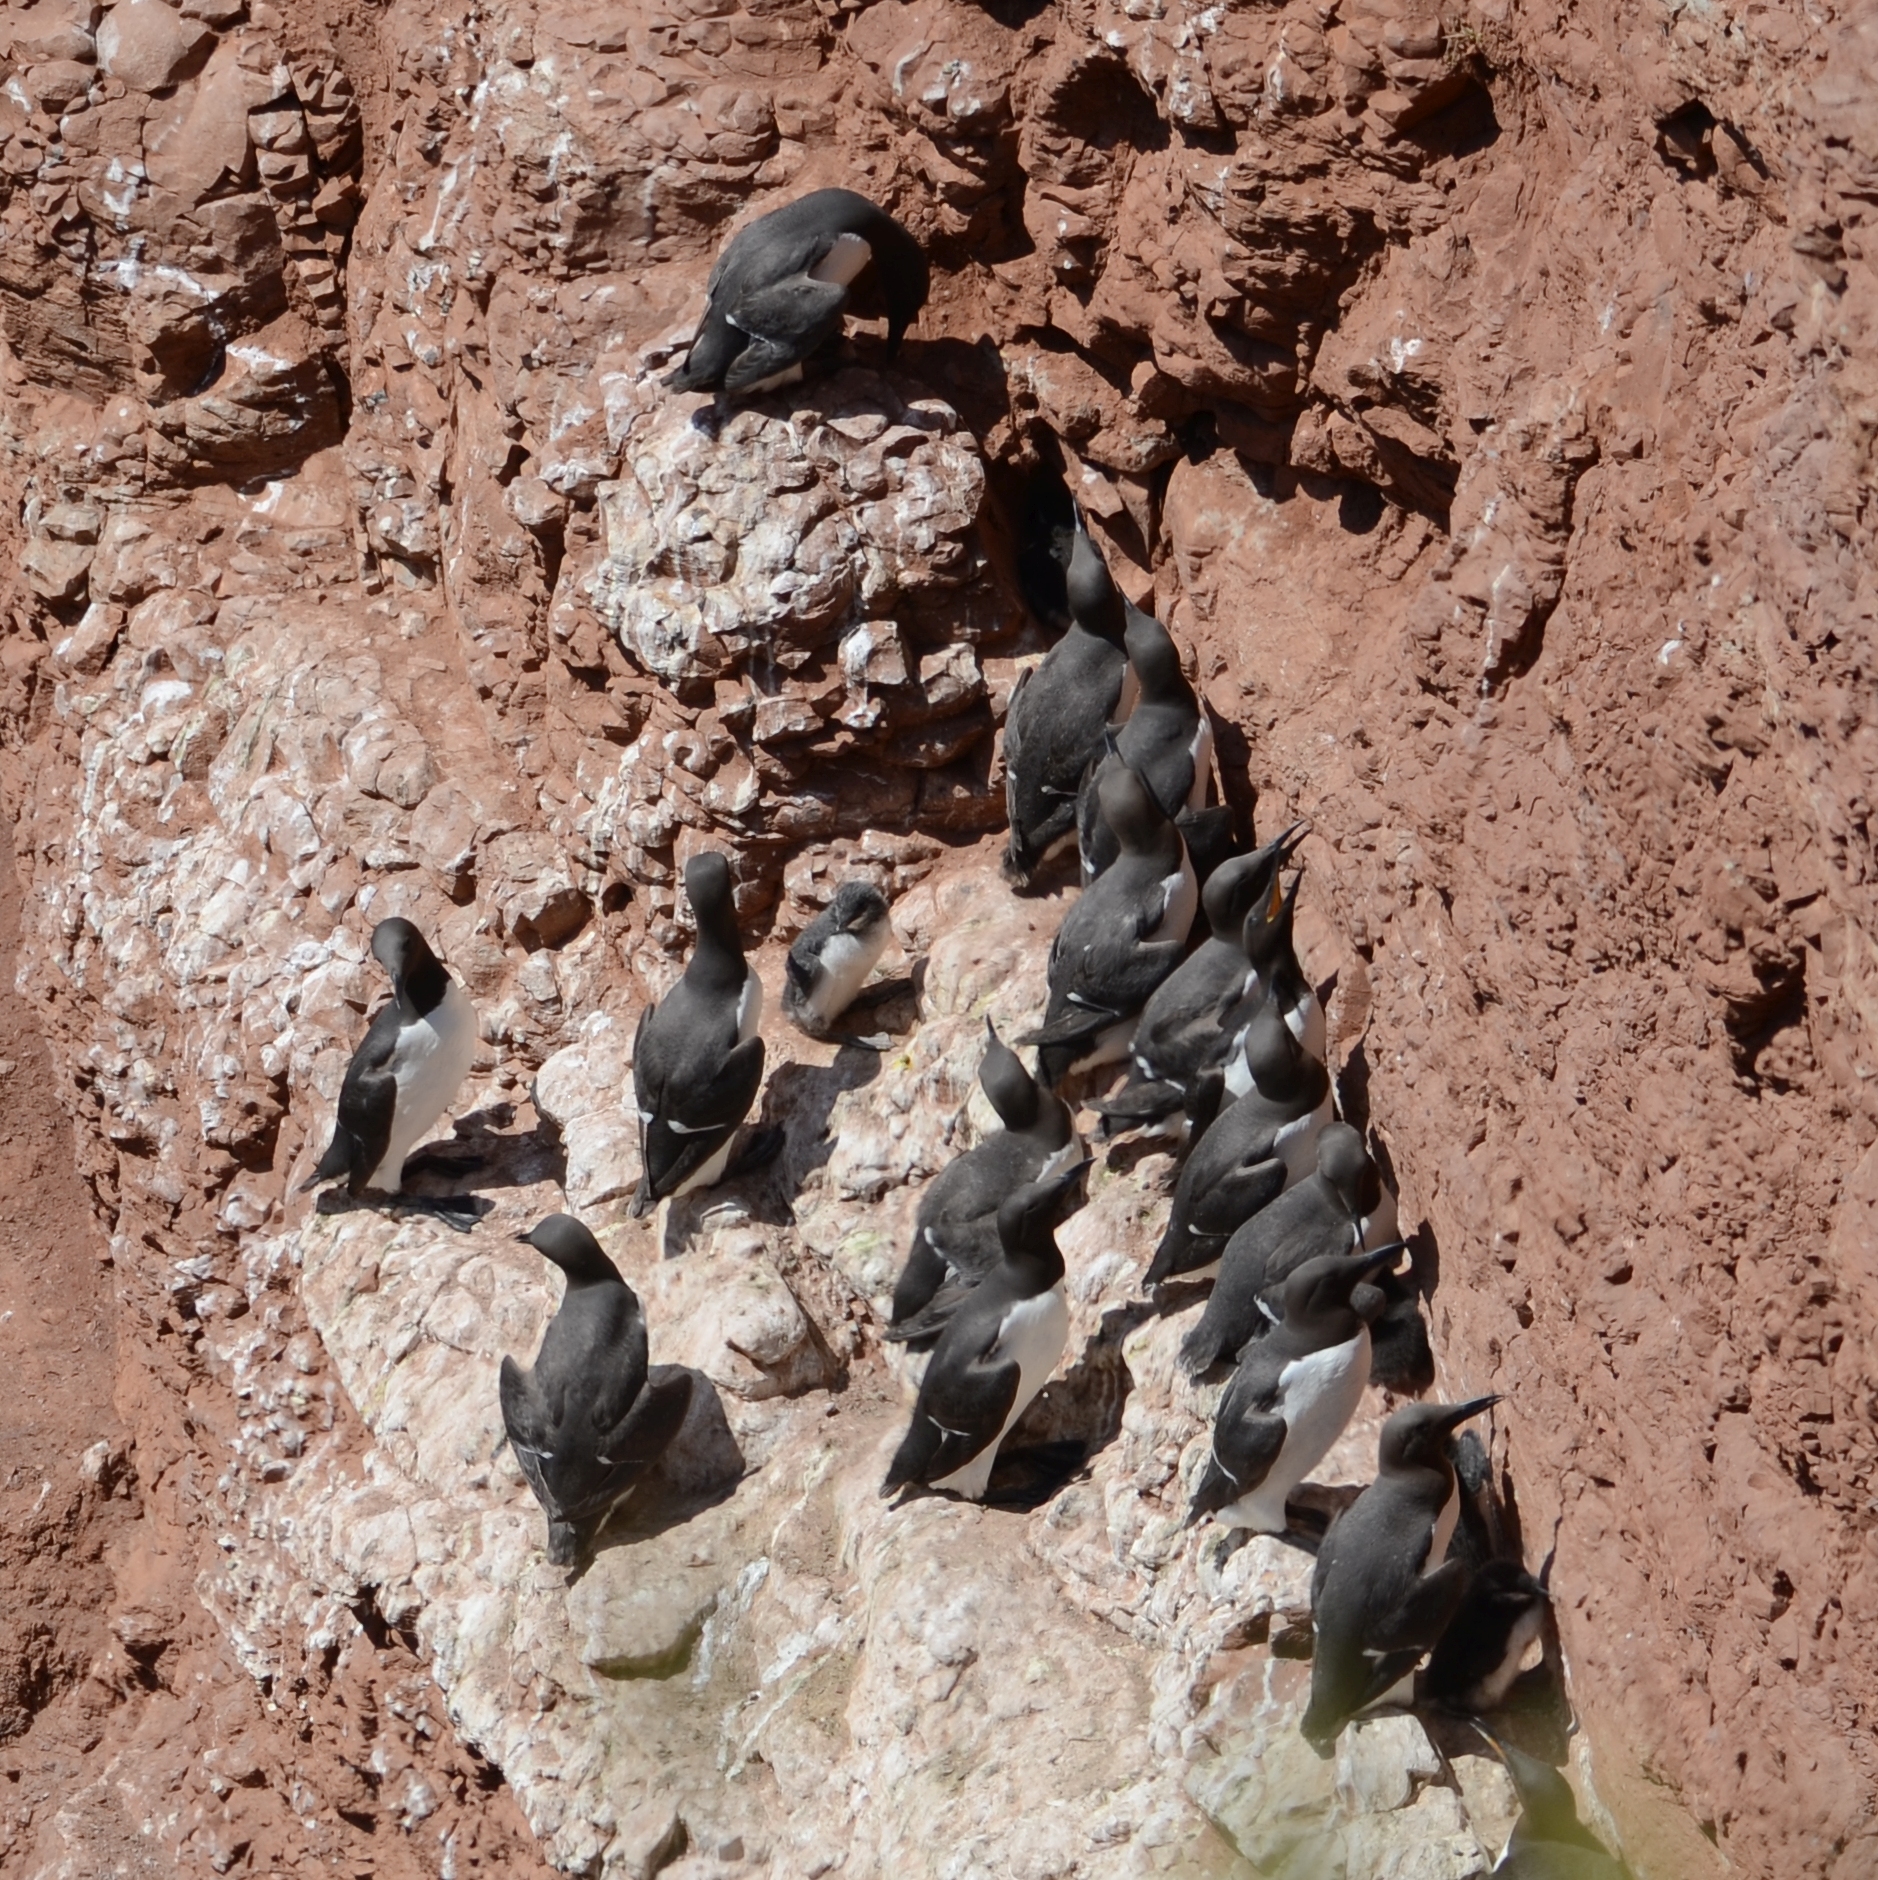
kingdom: Animalia
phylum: Chordata
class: Aves
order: Charadriiformes
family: Alcidae
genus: Uria
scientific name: Uria aalge
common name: Common murre
